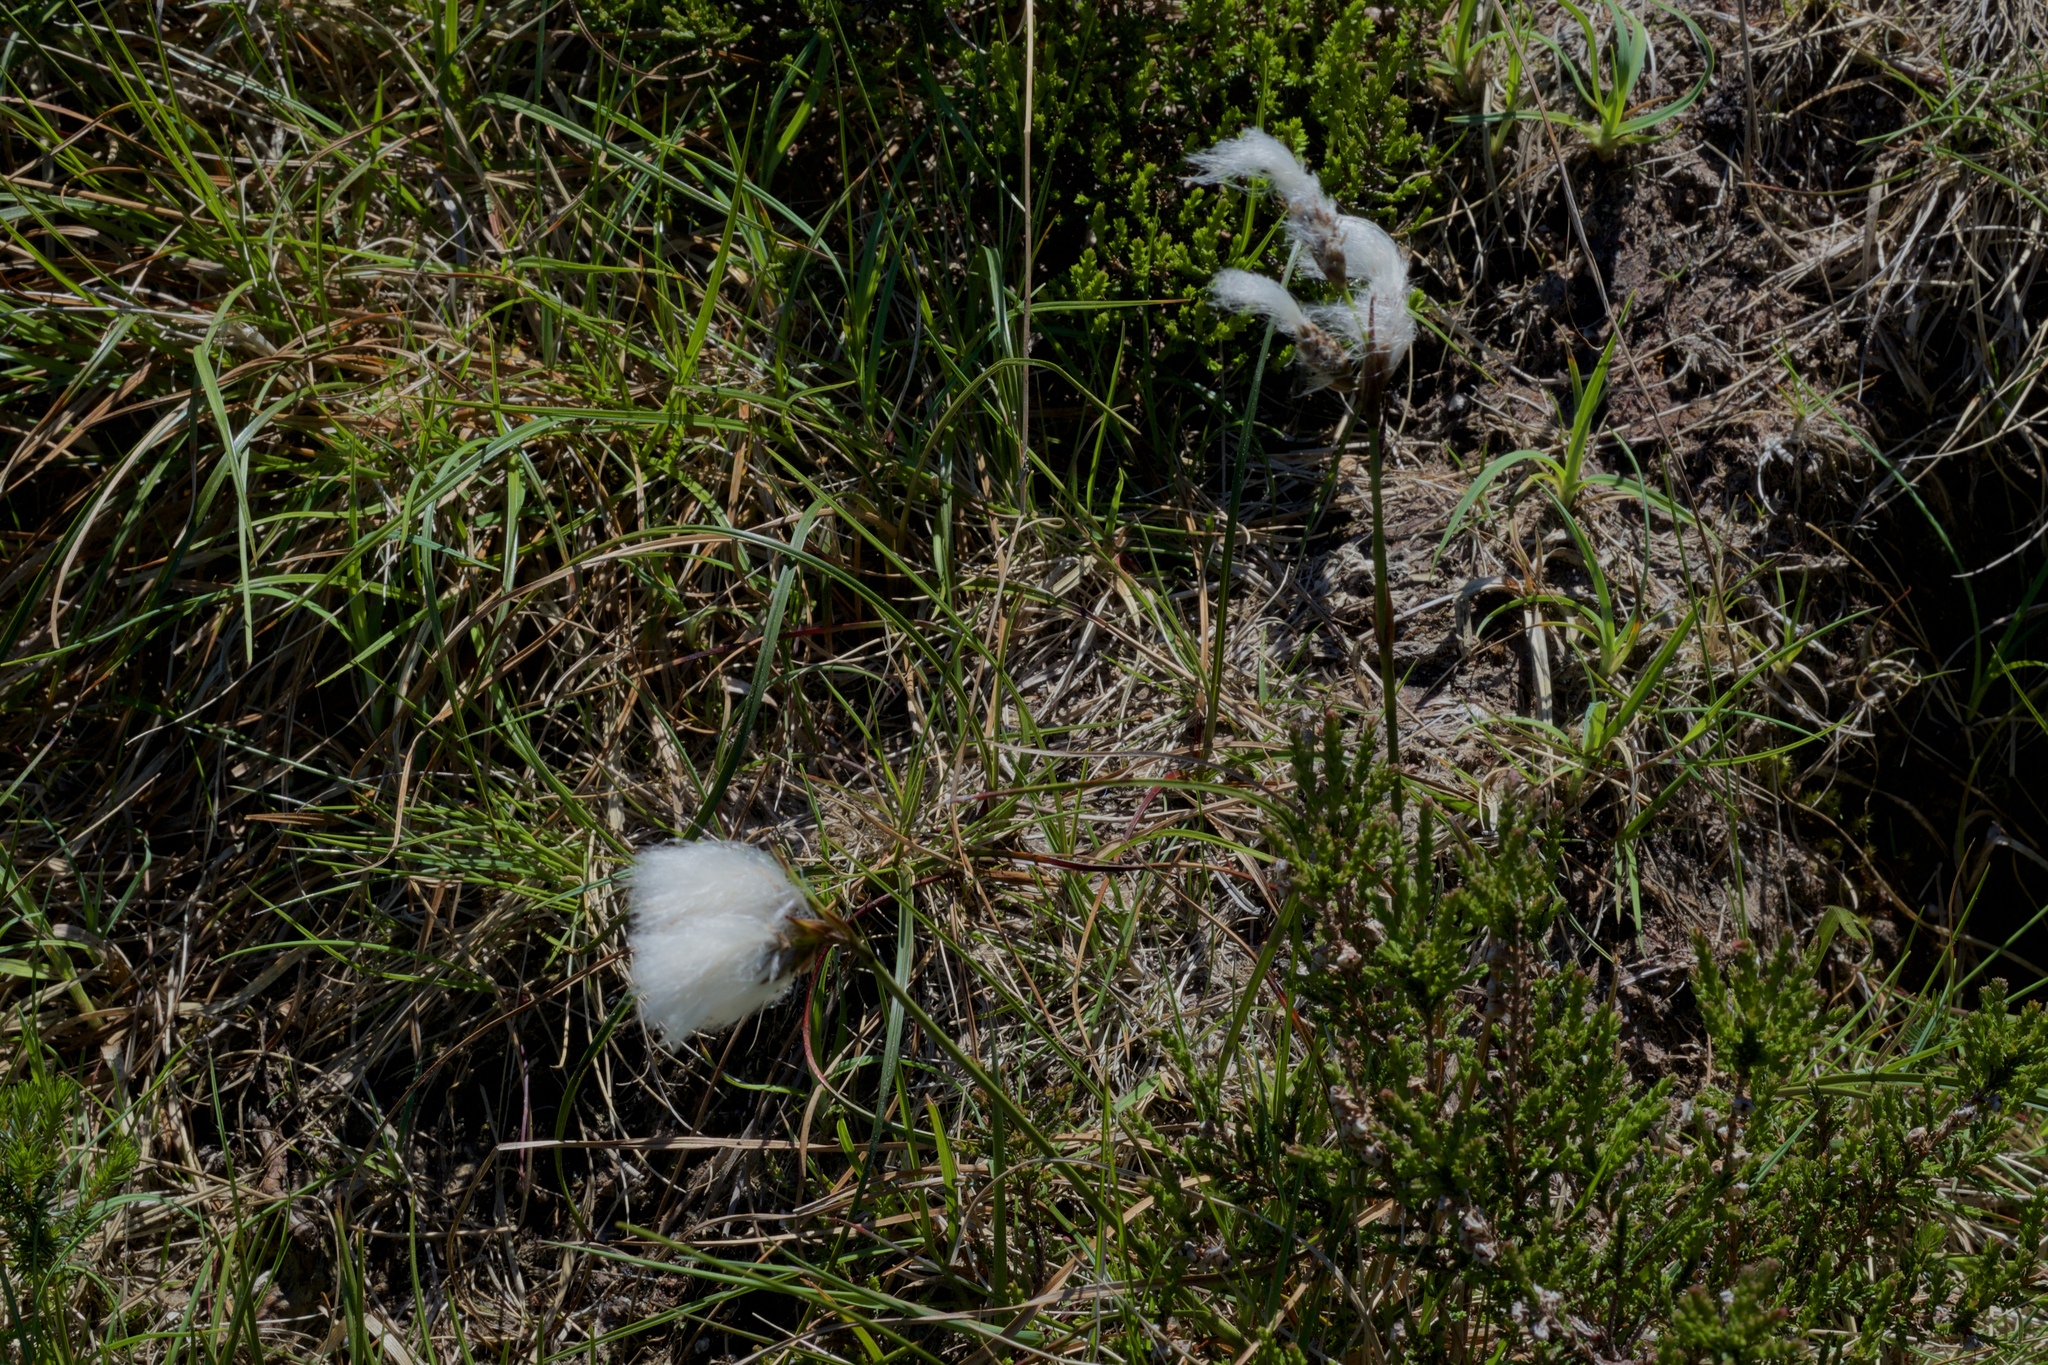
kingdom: Plantae
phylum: Tracheophyta
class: Liliopsida
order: Poales
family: Cyperaceae
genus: Eriophorum
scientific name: Eriophorum angustifolium
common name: Common cottongrass
